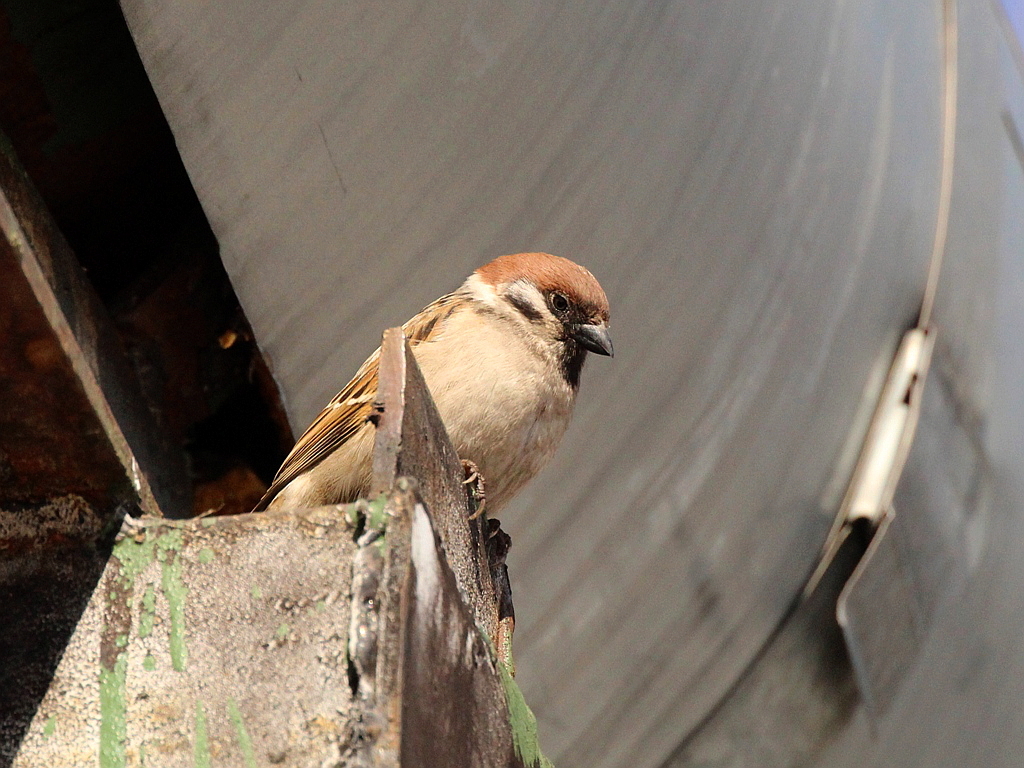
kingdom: Animalia
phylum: Chordata
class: Aves
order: Passeriformes
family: Passeridae
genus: Passer
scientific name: Passer montanus
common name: Eurasian tree sparrow
